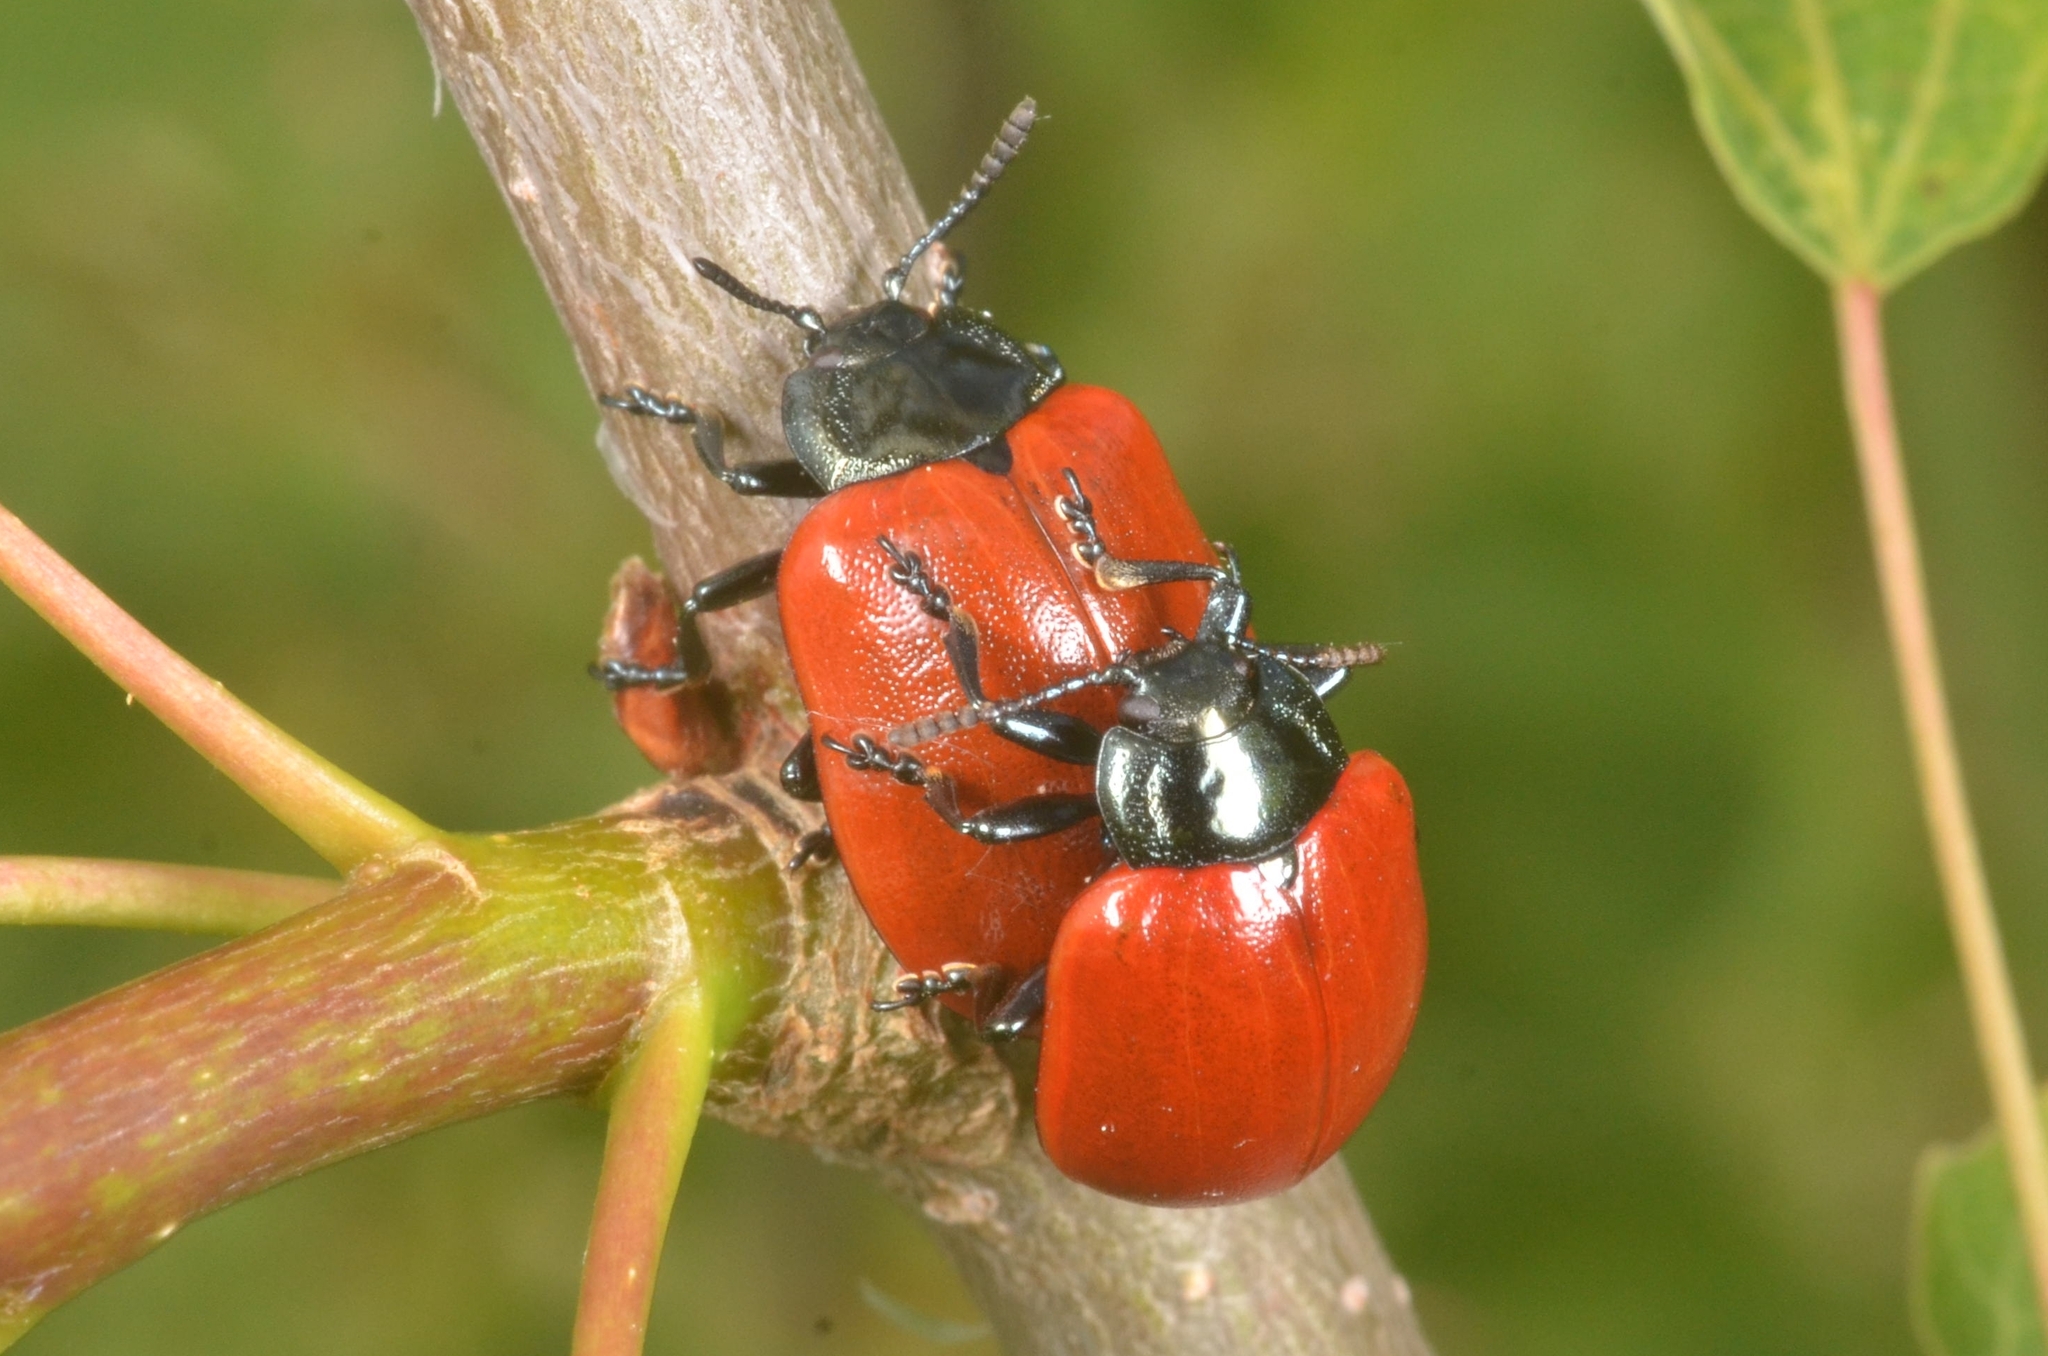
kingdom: Animalia
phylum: Arthropoda
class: Insecta
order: Coleoptera
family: Chrysomelidae
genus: Chrysomela
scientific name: Chrysomela populi
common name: Red poplar leaf beetle
